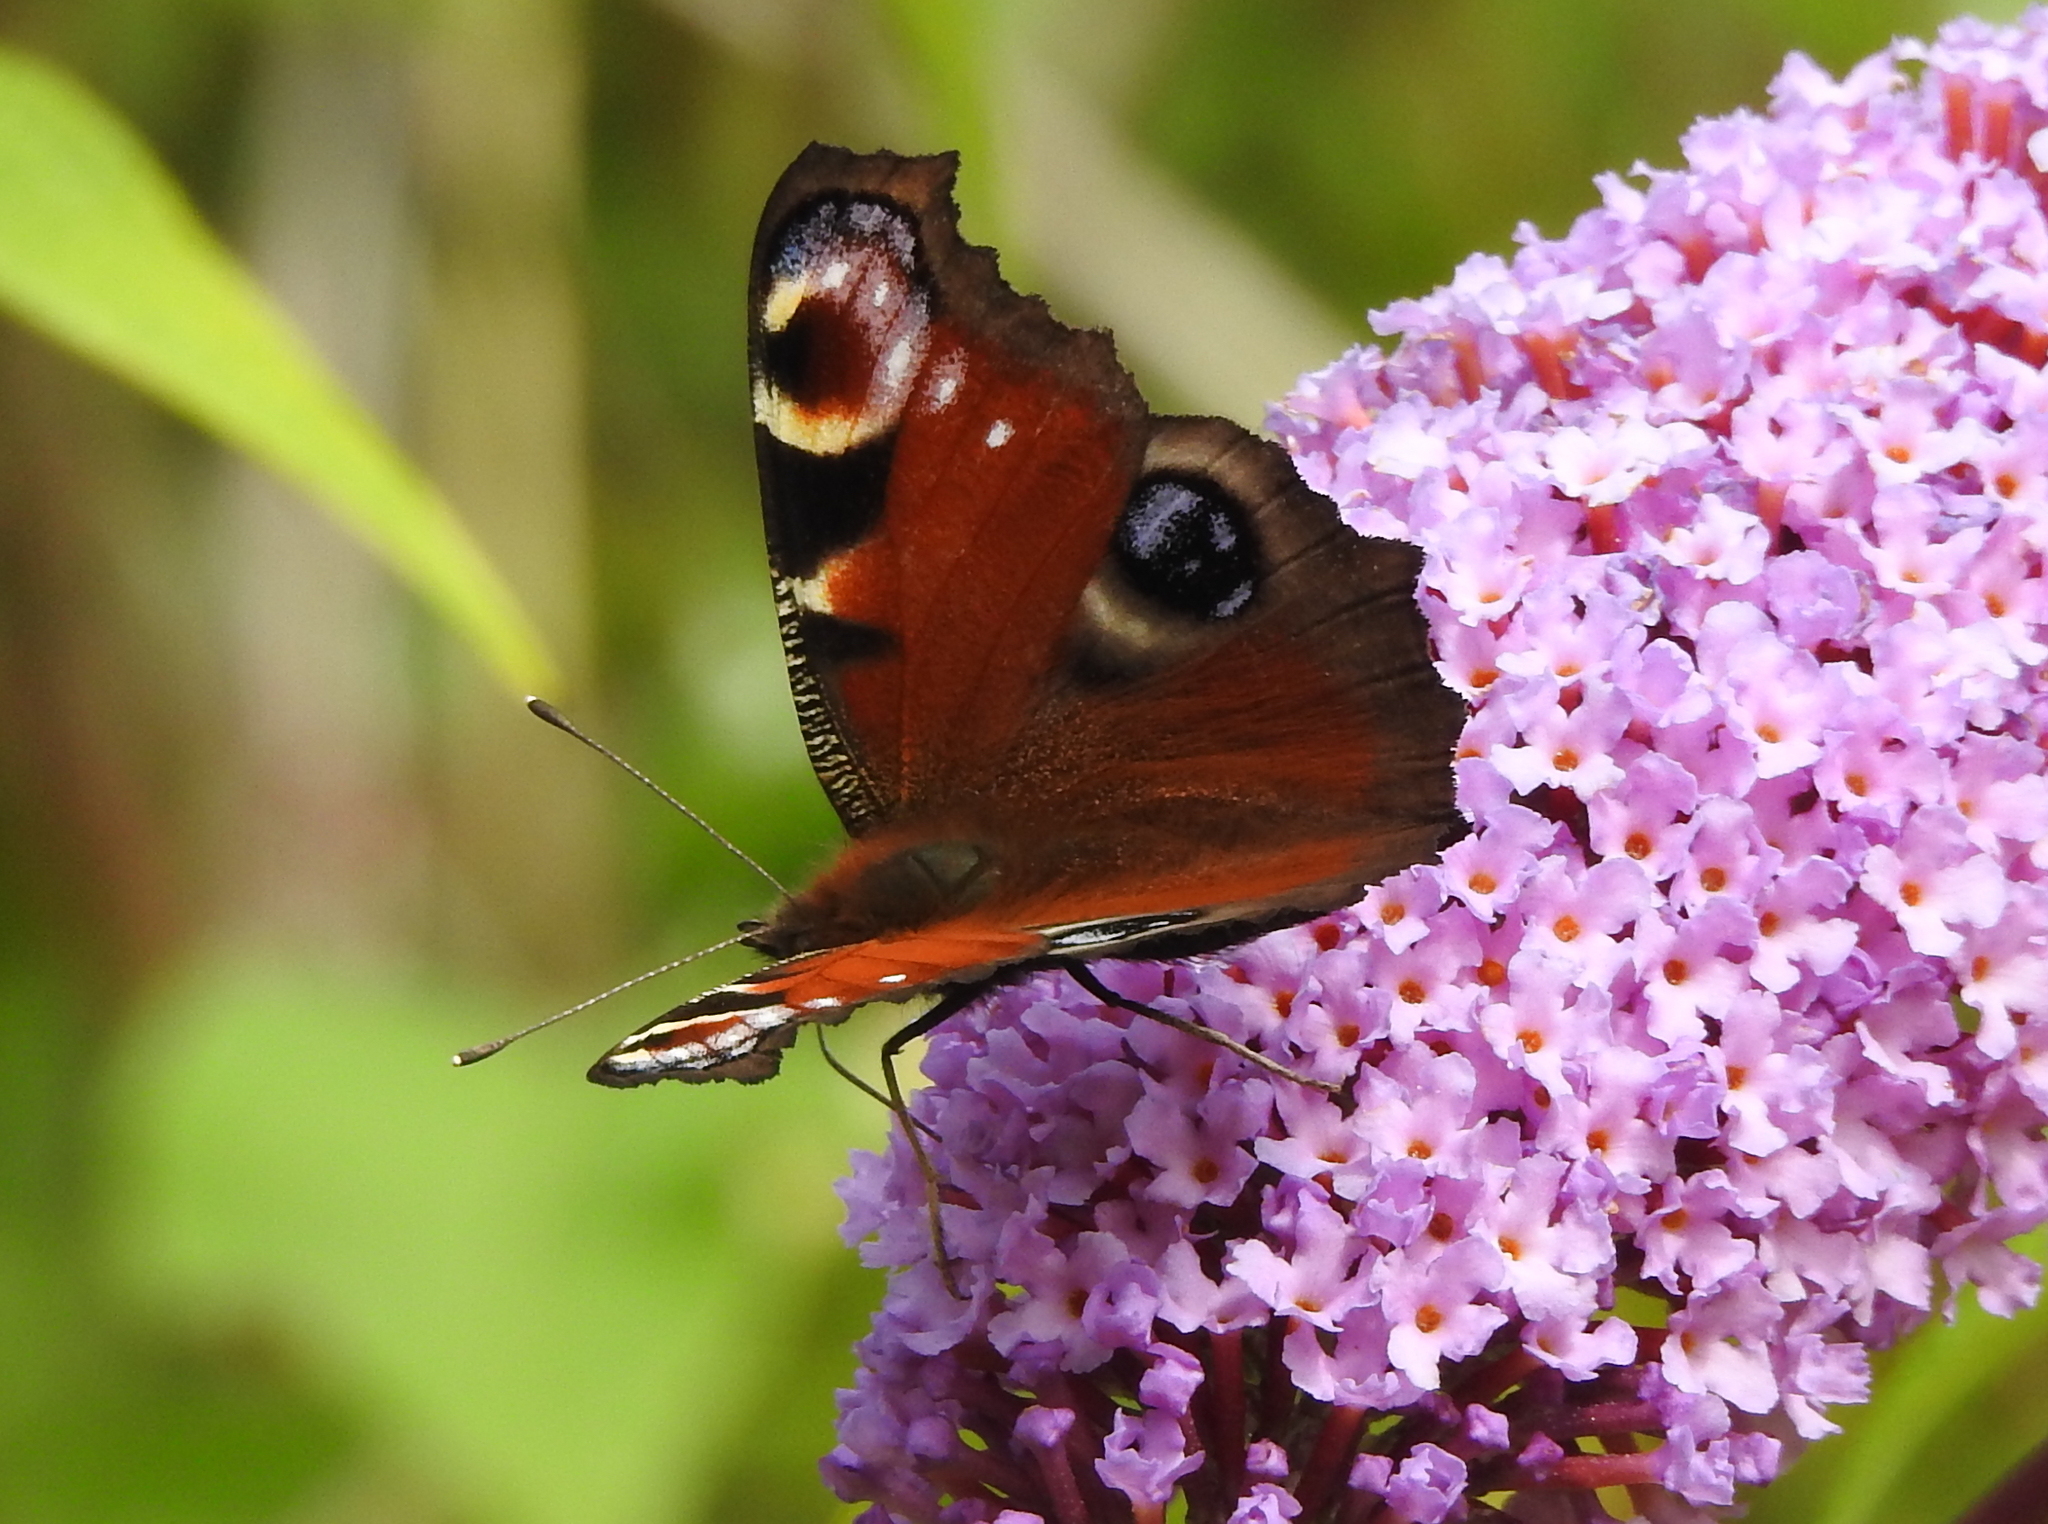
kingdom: Animalia
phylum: Arthropoda
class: Insecta
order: Lepidoptera
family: Nymphalidae
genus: Aglais
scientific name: Aglais io
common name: Peacock
